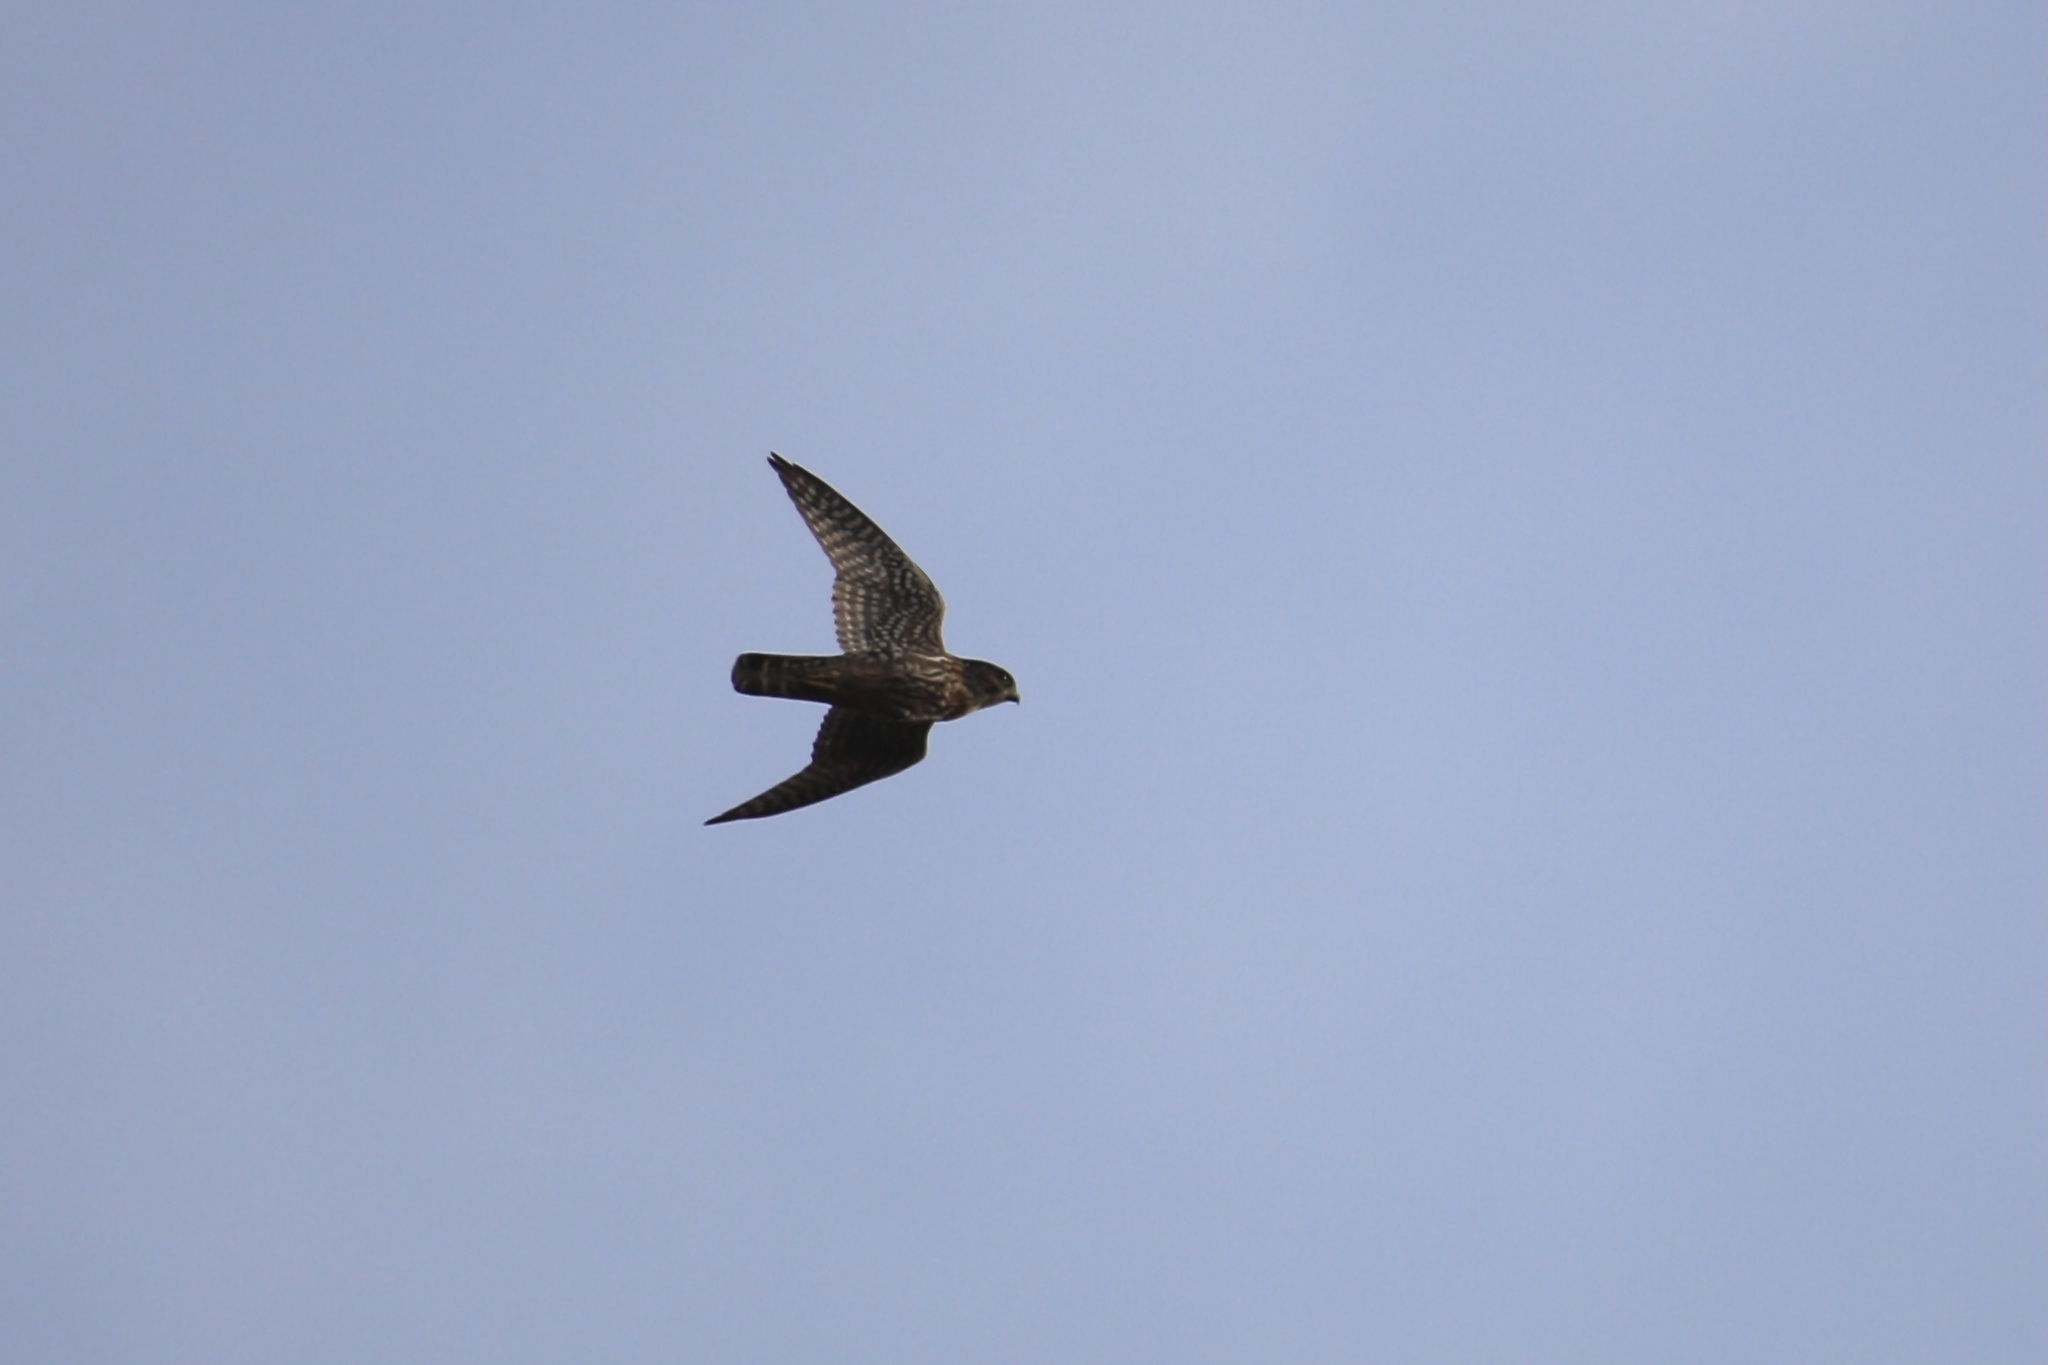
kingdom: Animalia
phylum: Chordata
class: Aves
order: Falconiformes
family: Falconidae
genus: Falco
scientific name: Falco columbarius
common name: Merlin
